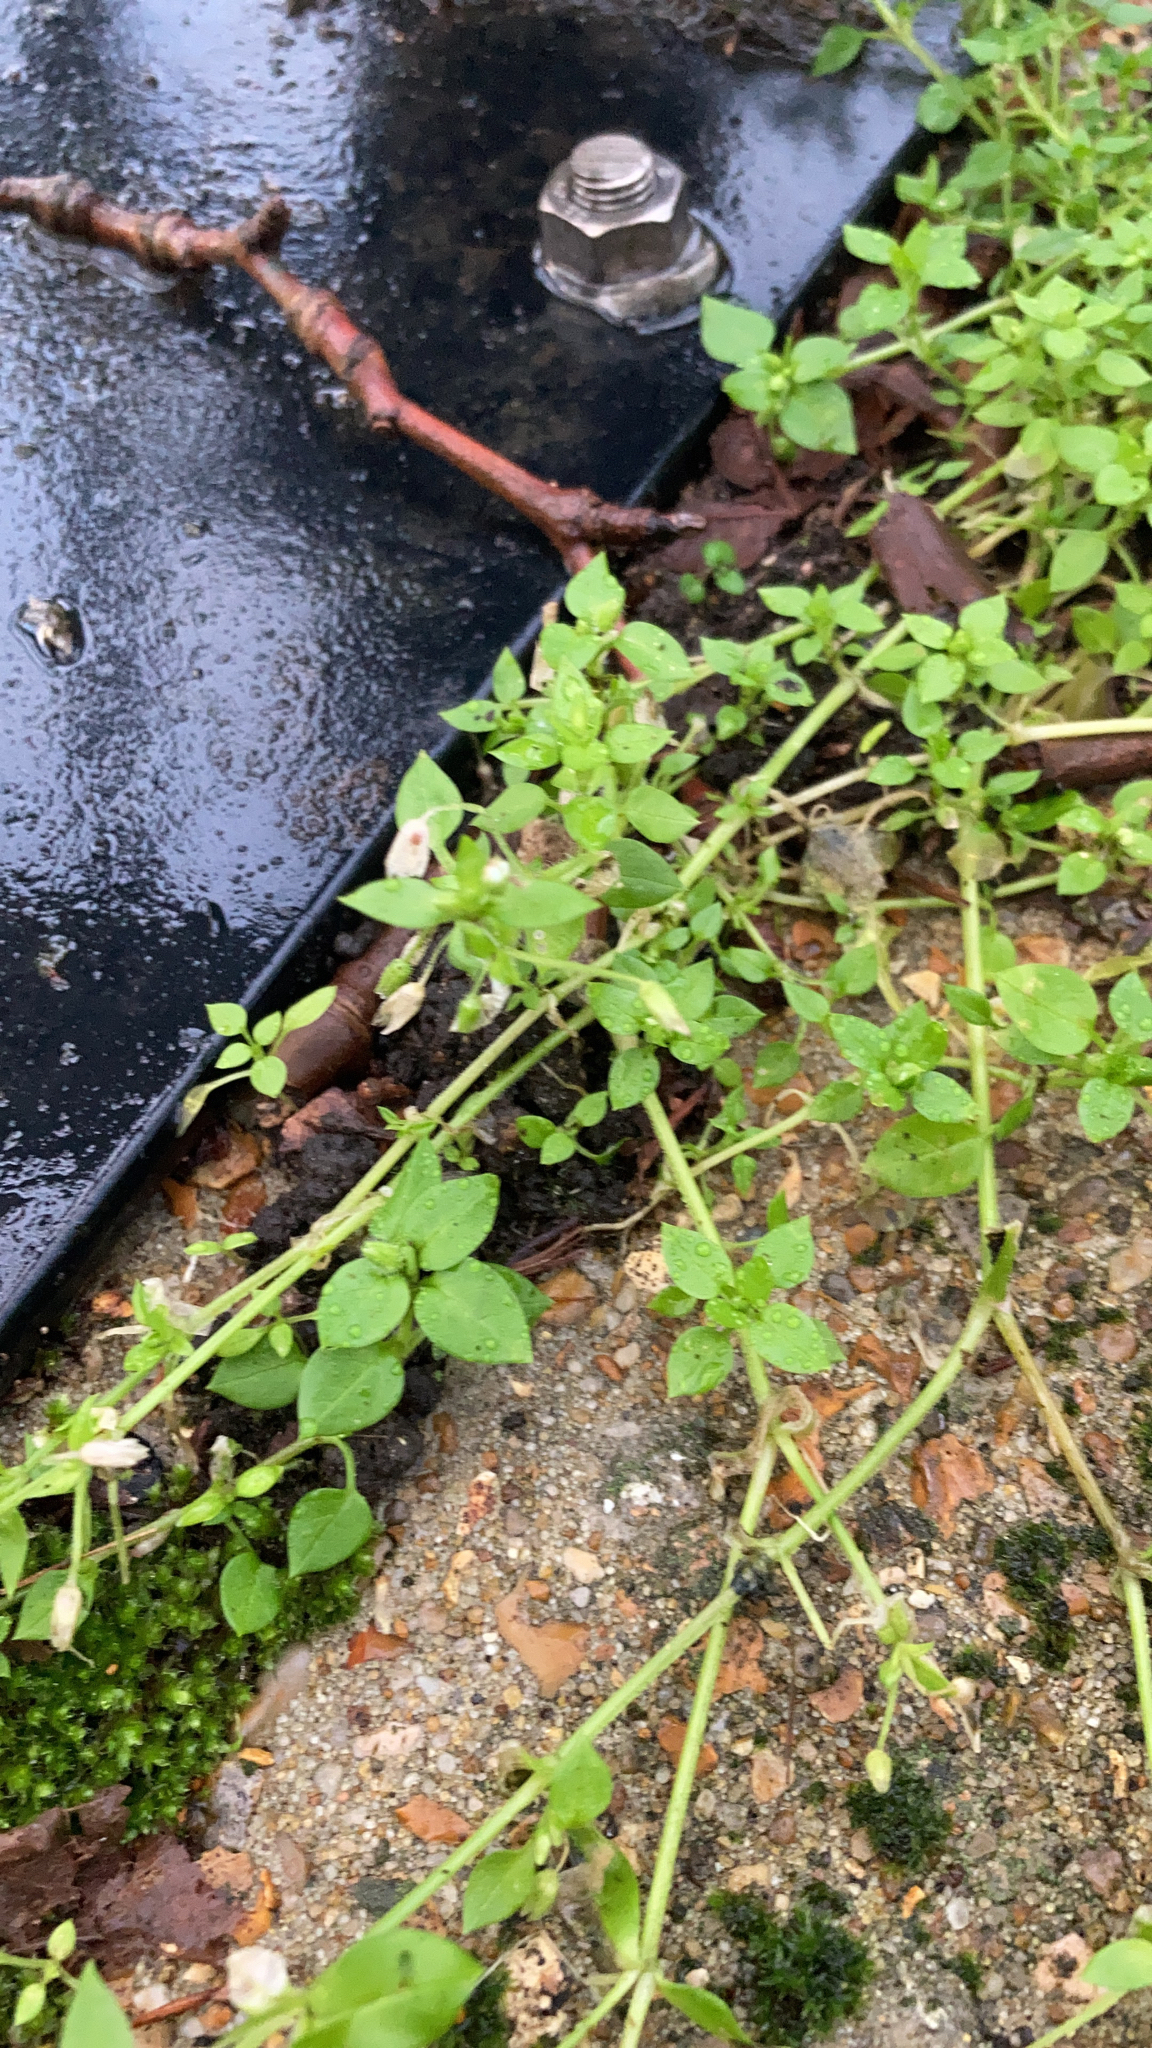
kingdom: Plantae
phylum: Tracheophyta
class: Magnoliopsida
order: Caryophyllales
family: Caryophyllaceae
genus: Stellaria
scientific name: Stellaria media
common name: Common chickweed
